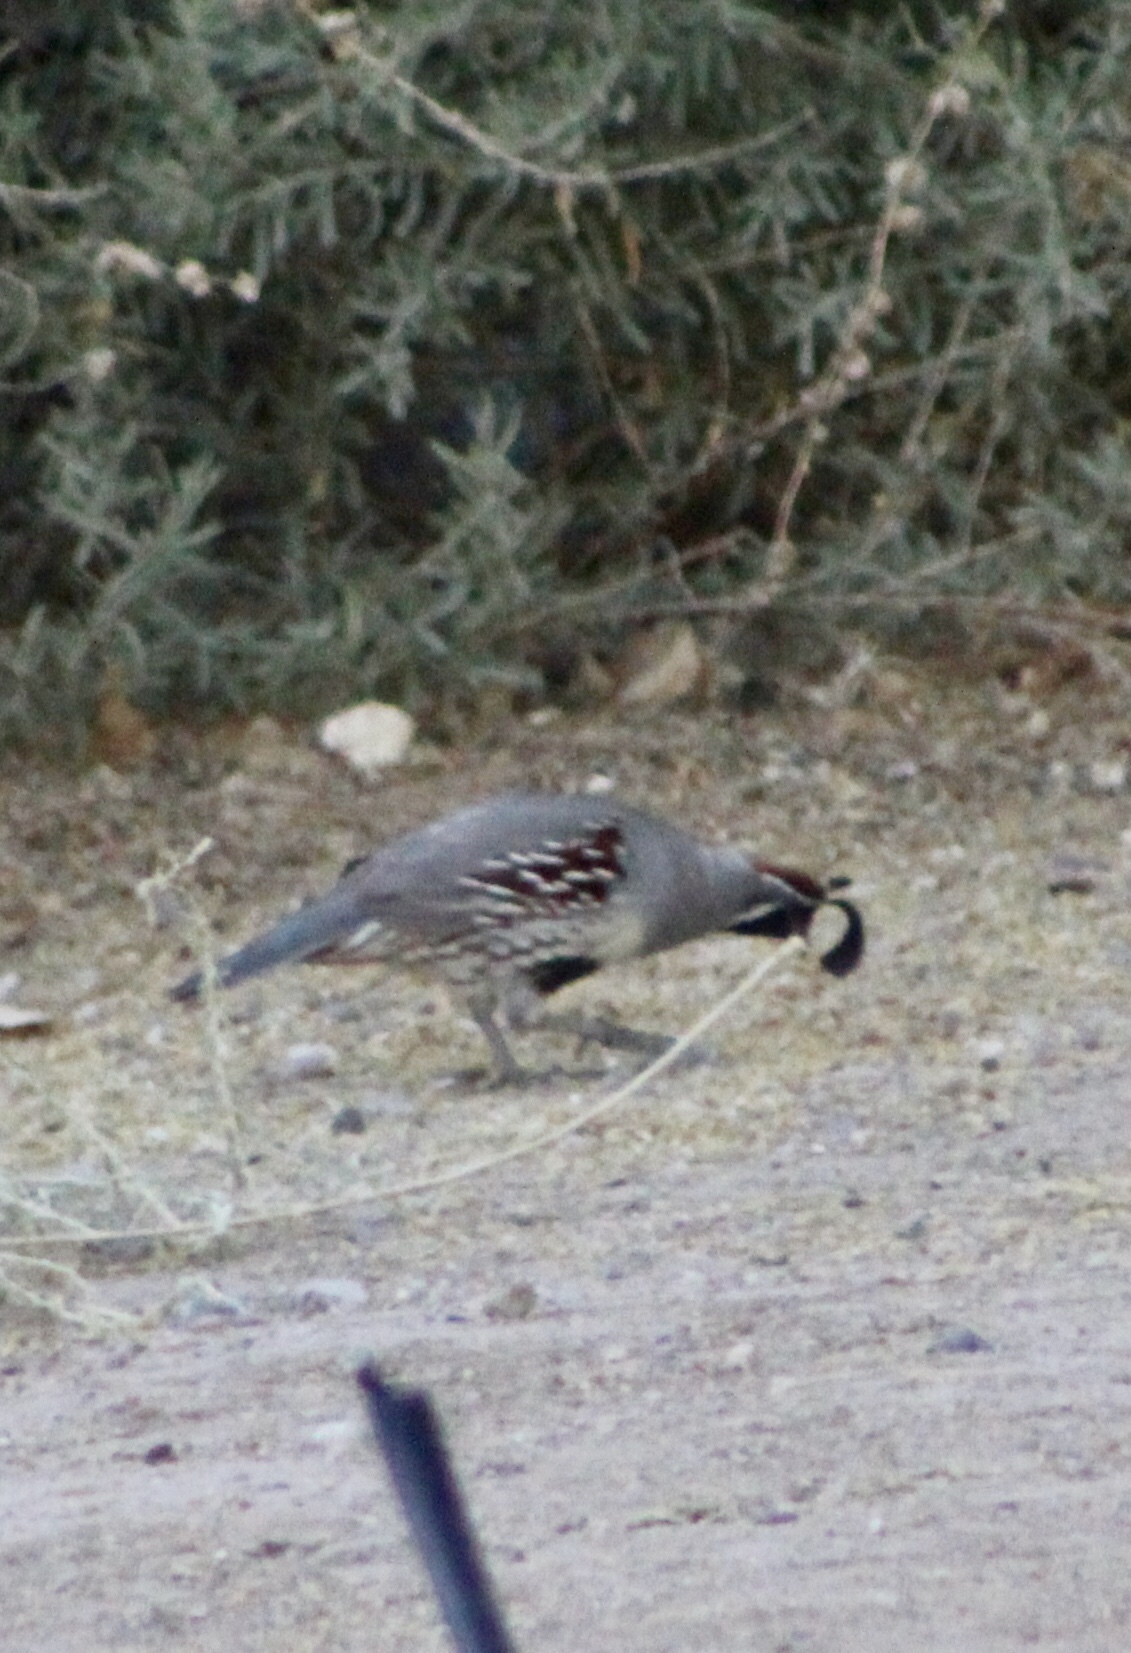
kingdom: Animalia
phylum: Chordata
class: Aves
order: Galliformes
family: Odontophoridae
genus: Callipepla
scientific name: Callipepla gambelii
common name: Gambel's quail
